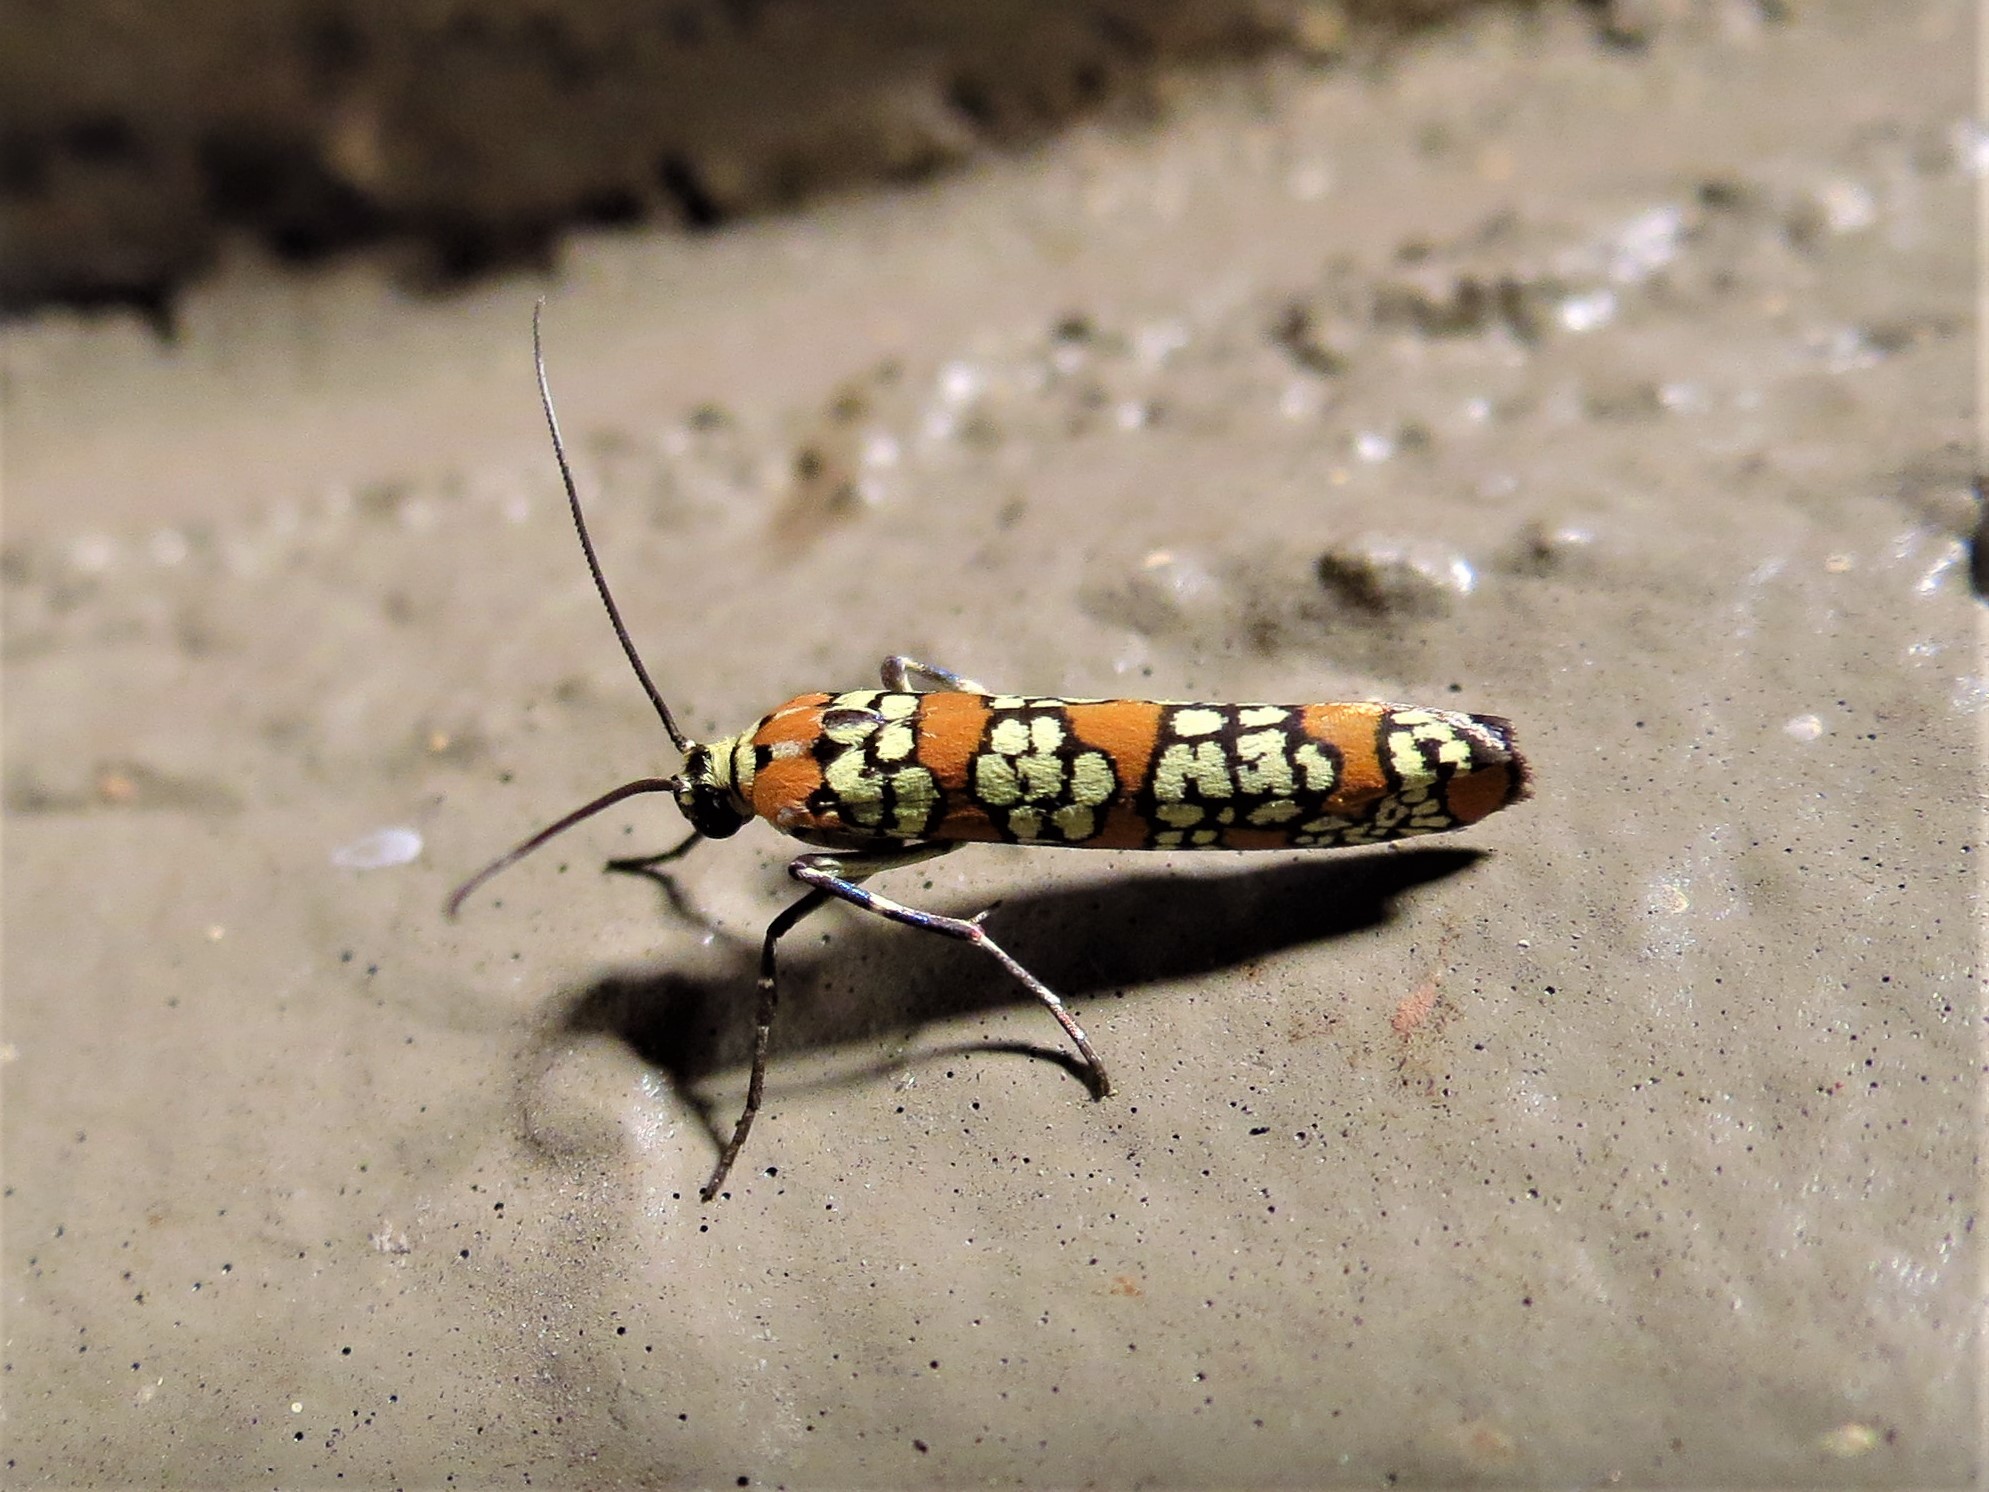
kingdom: Animalia
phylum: Arthropoda
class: Insecta
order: Lepidoptera
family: Attevidae
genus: Atteva
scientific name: Atteva punctella
